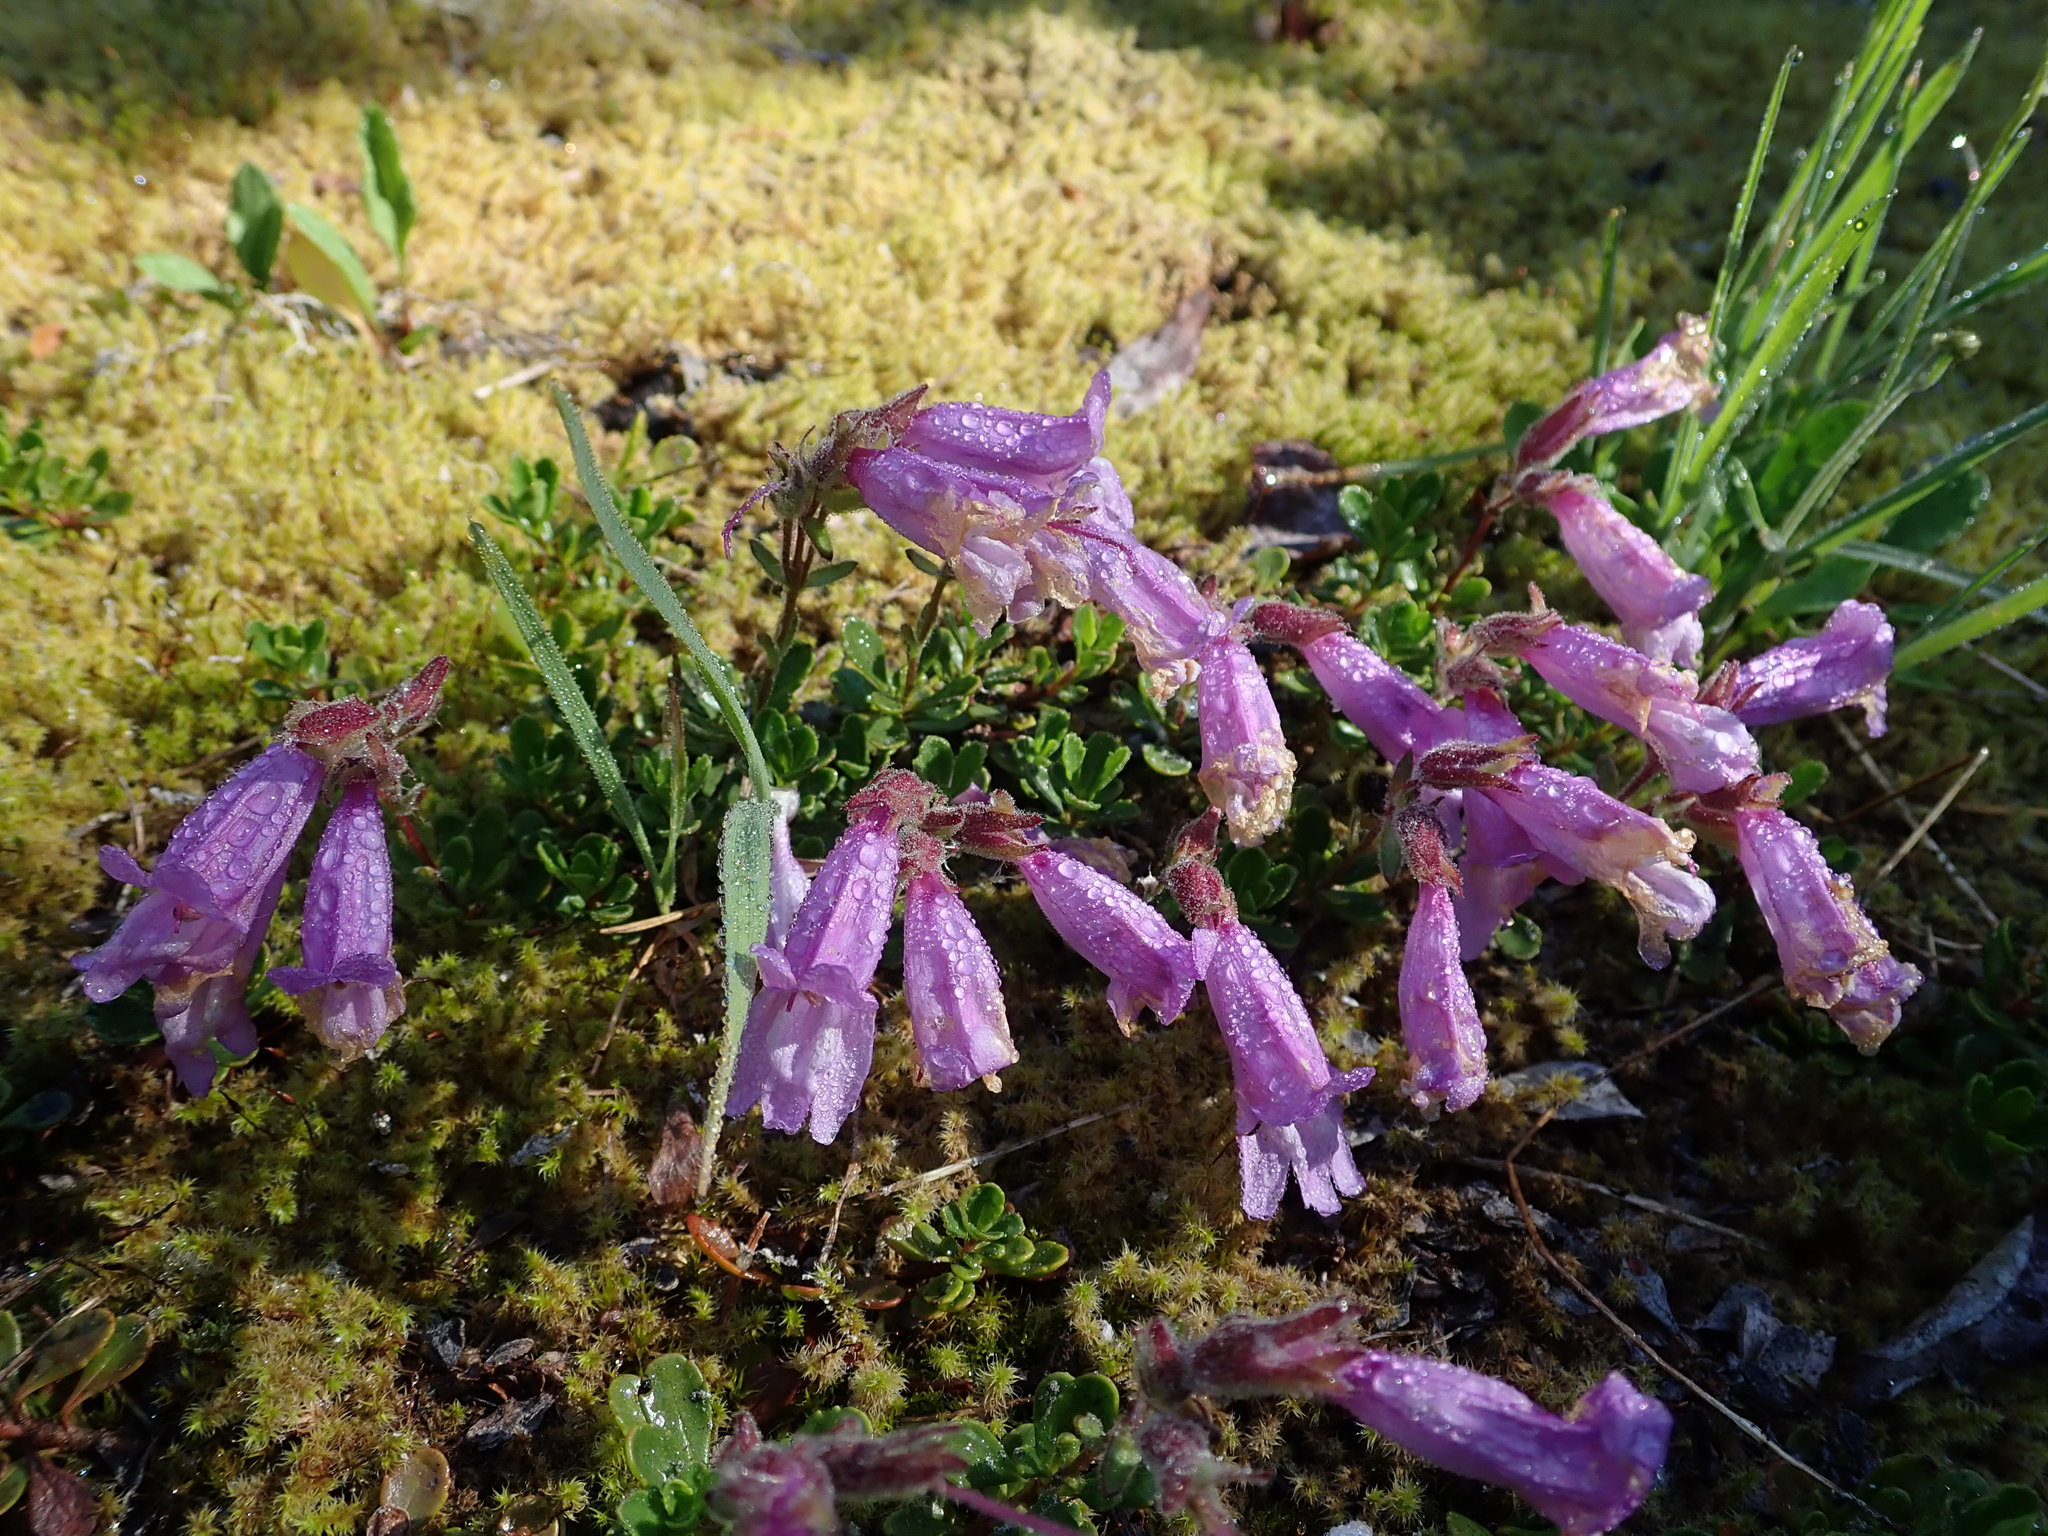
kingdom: Plantae
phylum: Tracheophyta
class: Magnoliopsida
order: Lamiales
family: Plantaginaceae
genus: Penstemon
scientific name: Penstemon davidsonii
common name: Davidson's penstemon
